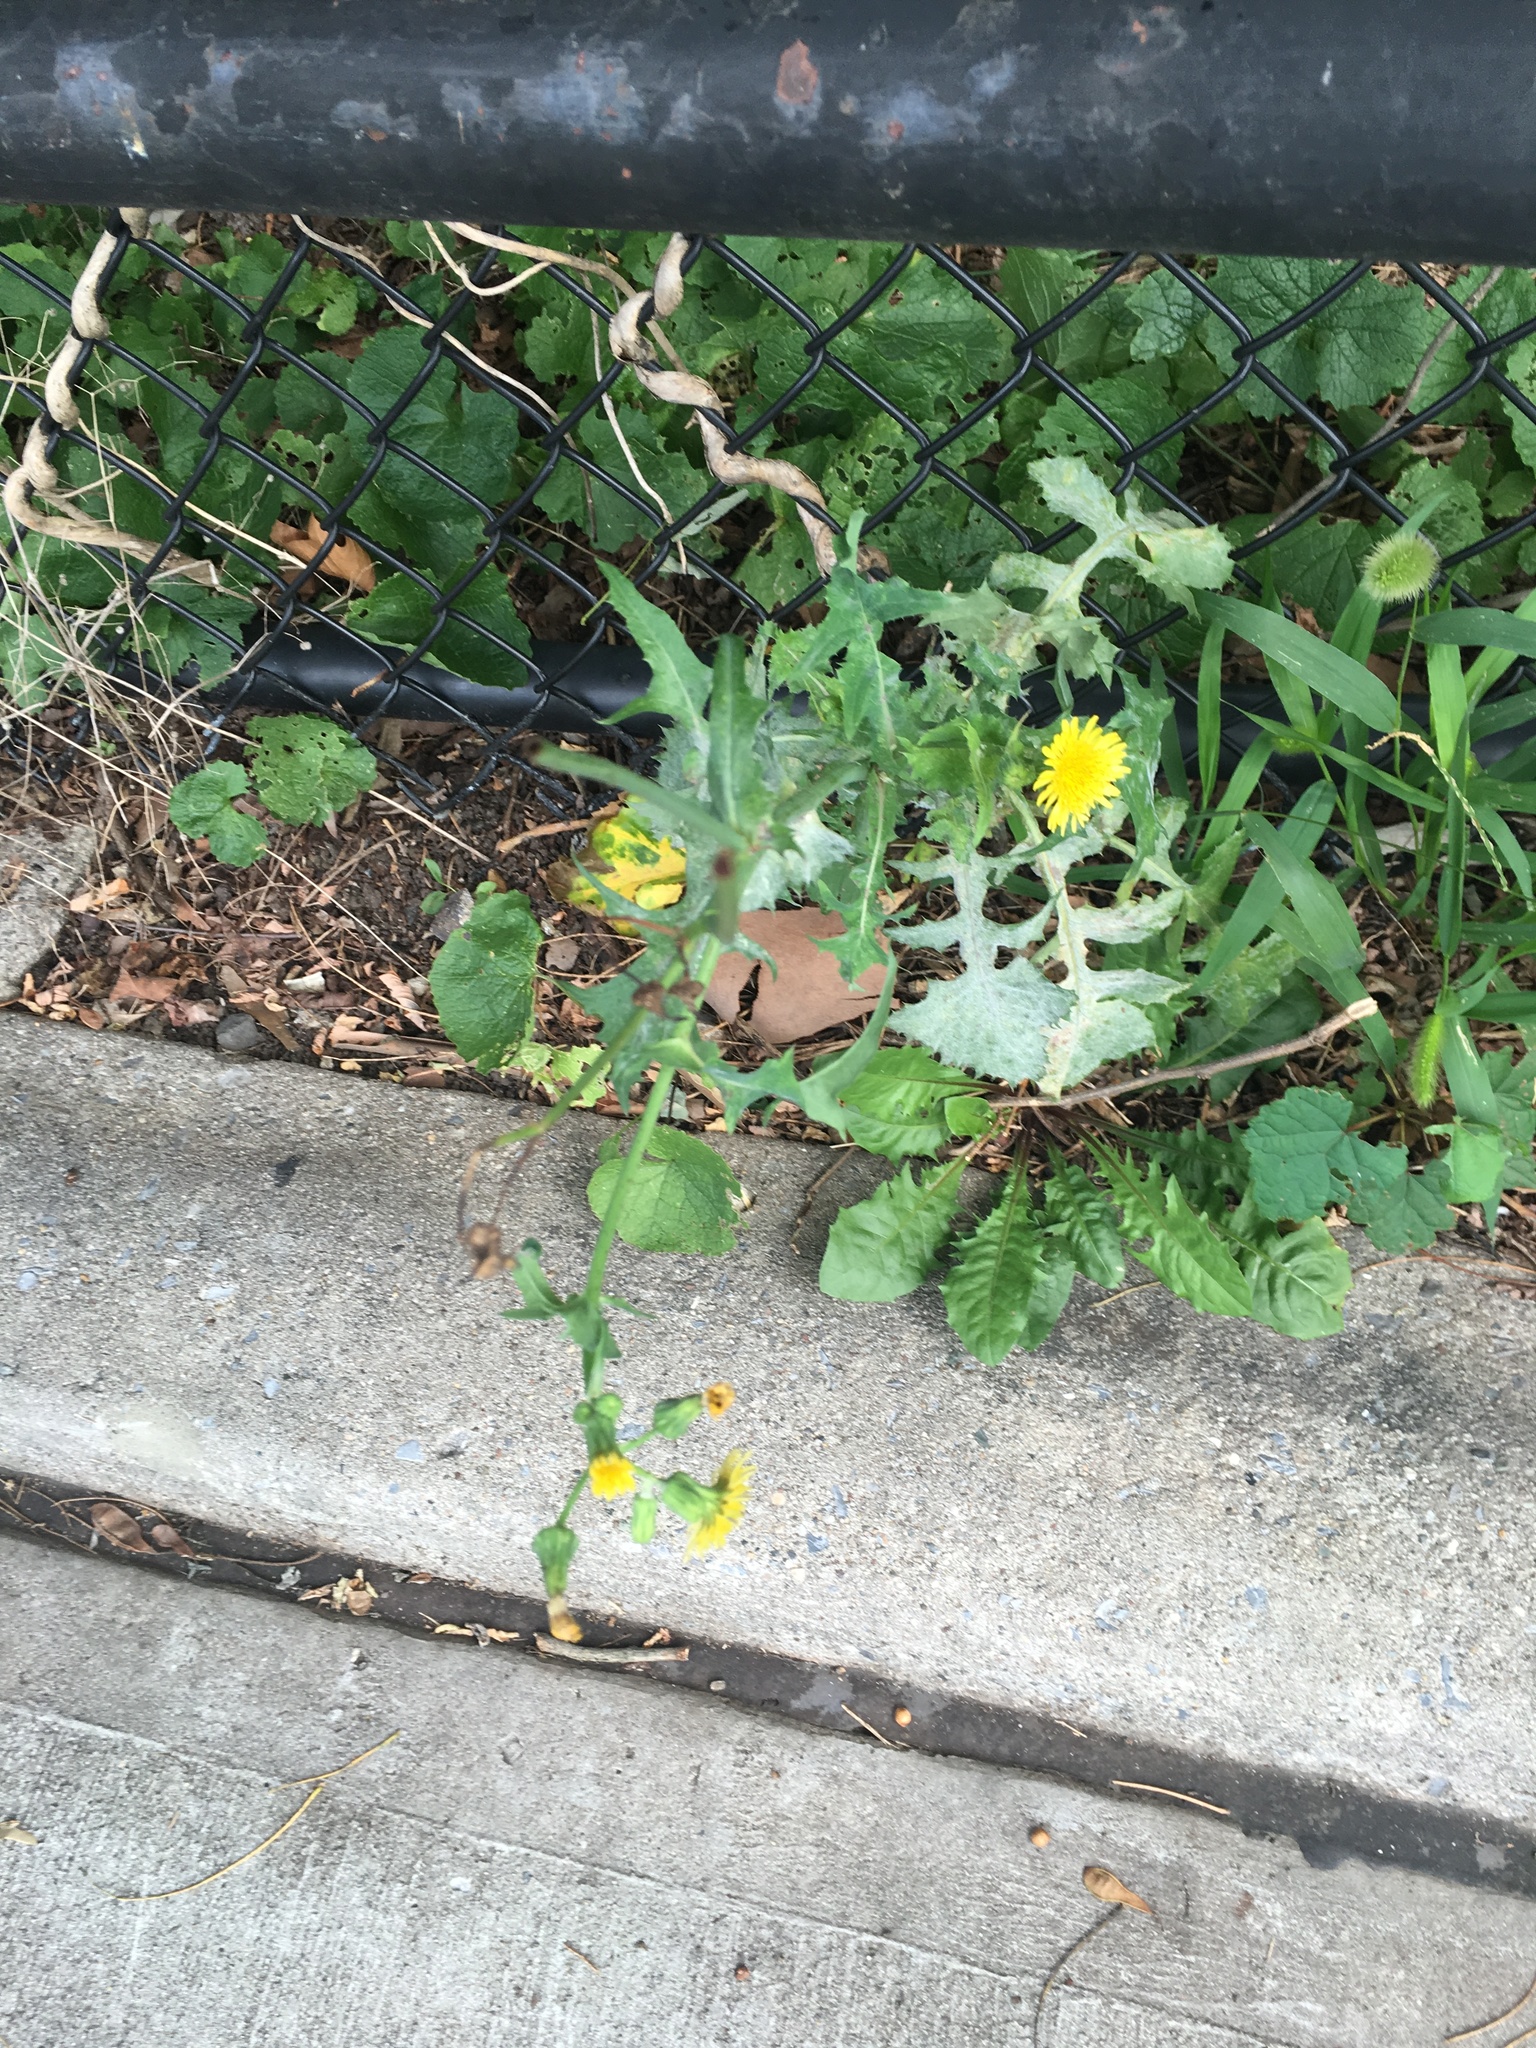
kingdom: Plantae
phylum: Tracheophyta
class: Magnoliopsida
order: Asterales
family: Asteraceae
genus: Sonchus
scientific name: Sonchus oleraceus
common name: Common sowthistle
